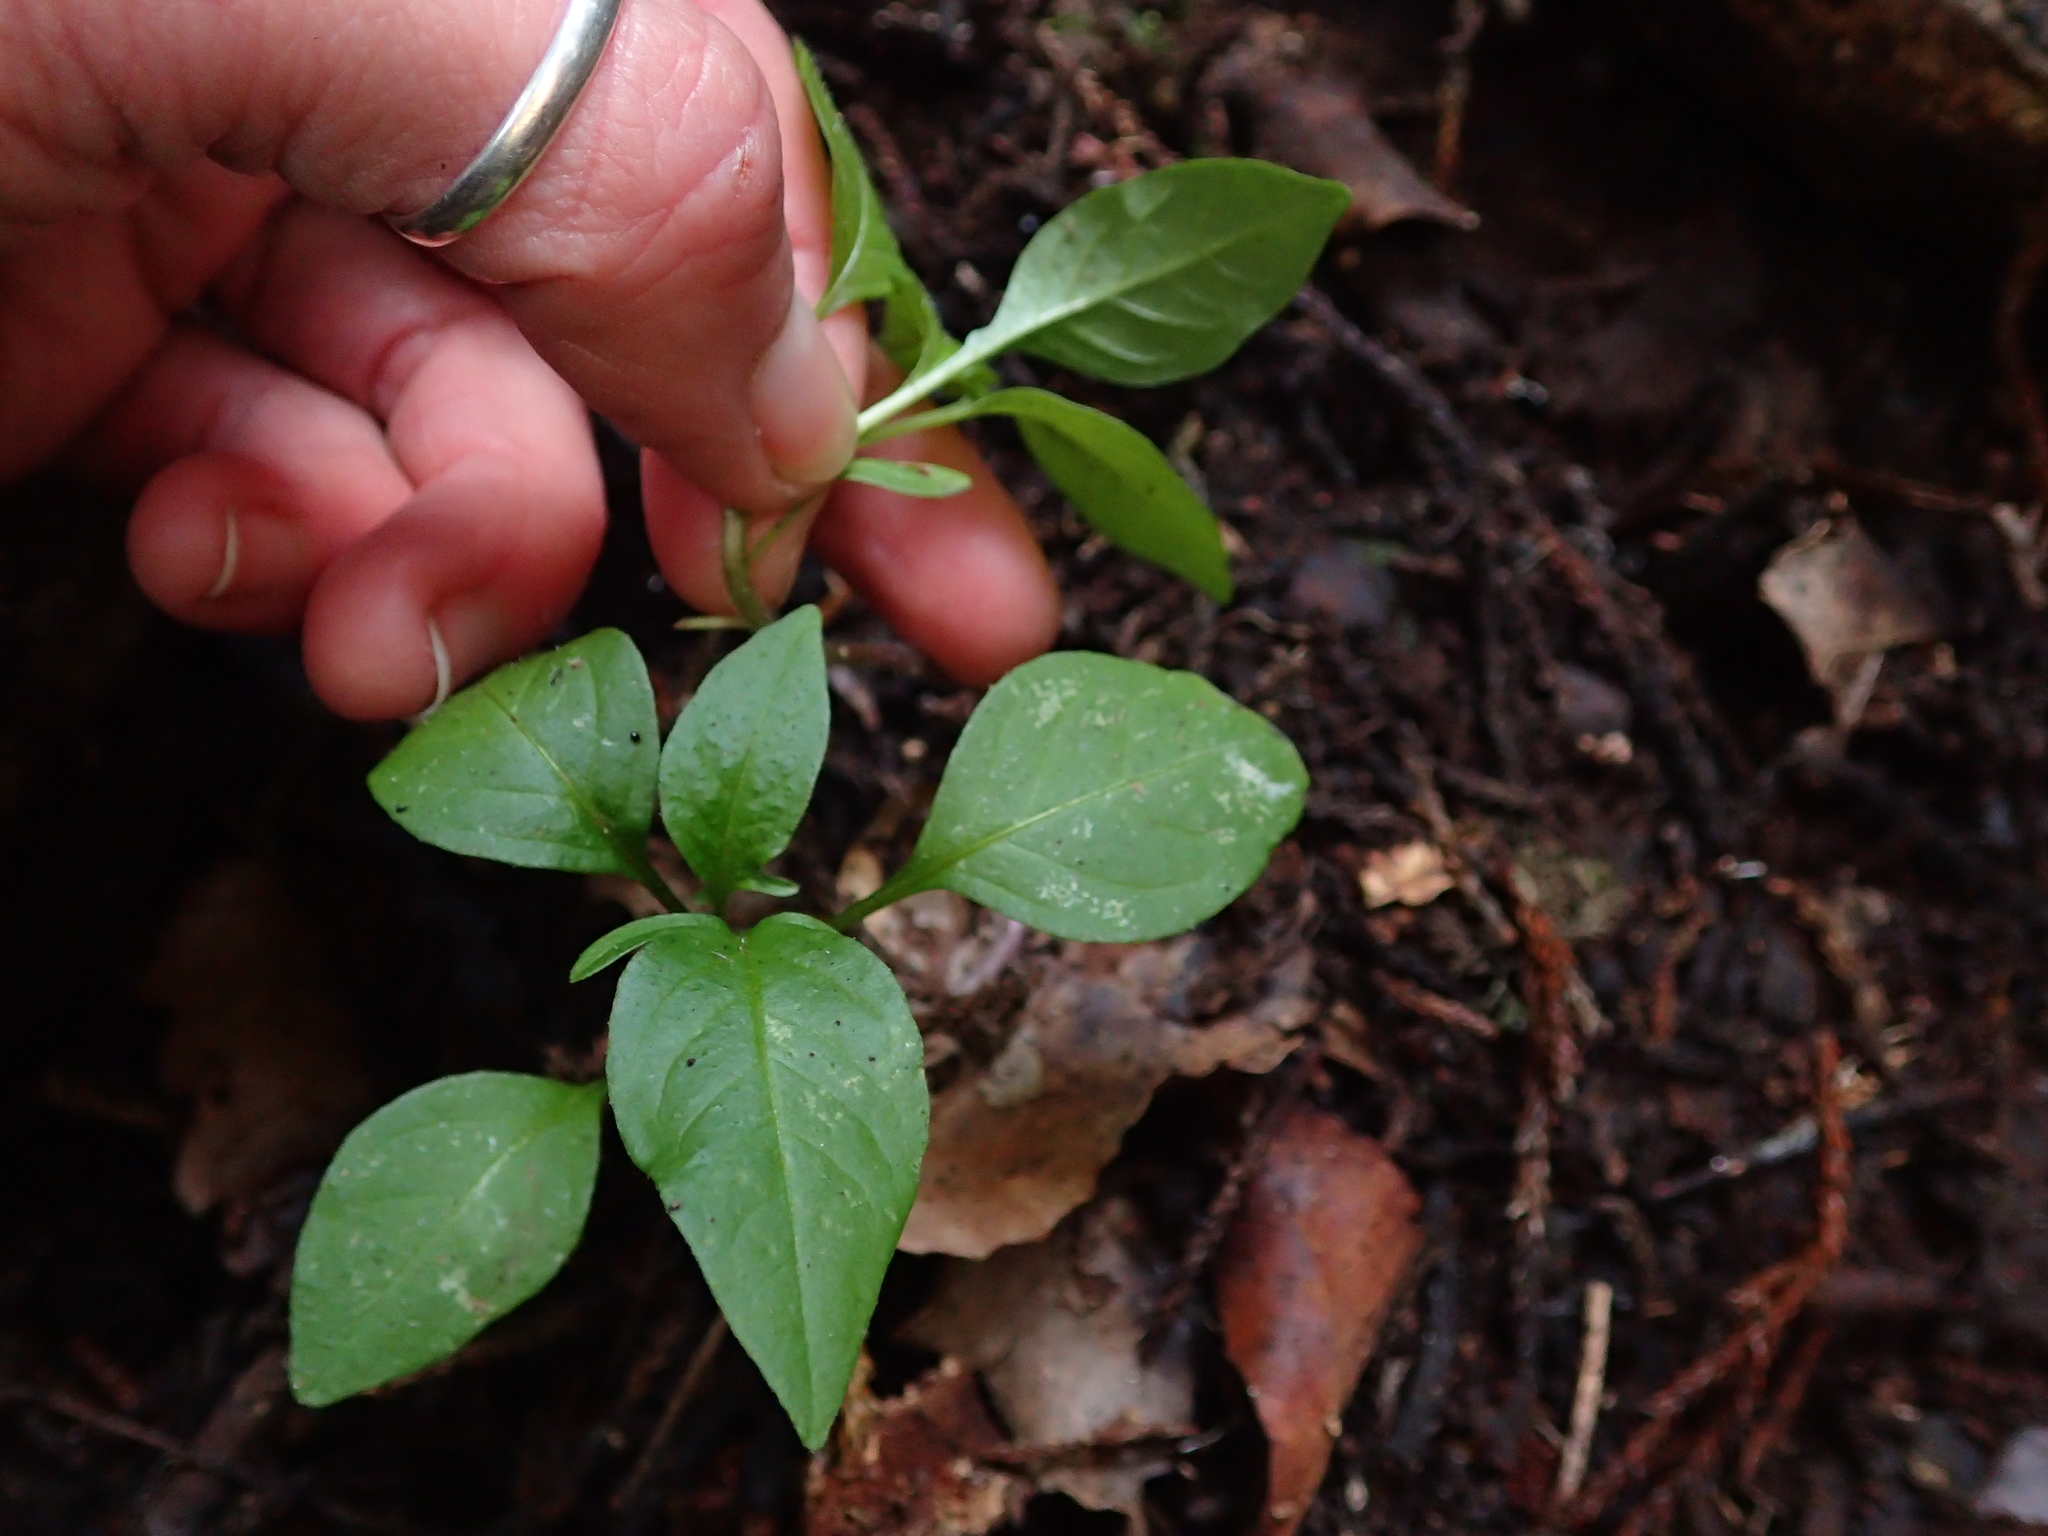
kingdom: Plantae
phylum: Tracheophyta
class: Magnoliopsida
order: Solanales
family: Solanaceae
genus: Solanum
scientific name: Solanum dulcamara
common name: Climbing nightshade
